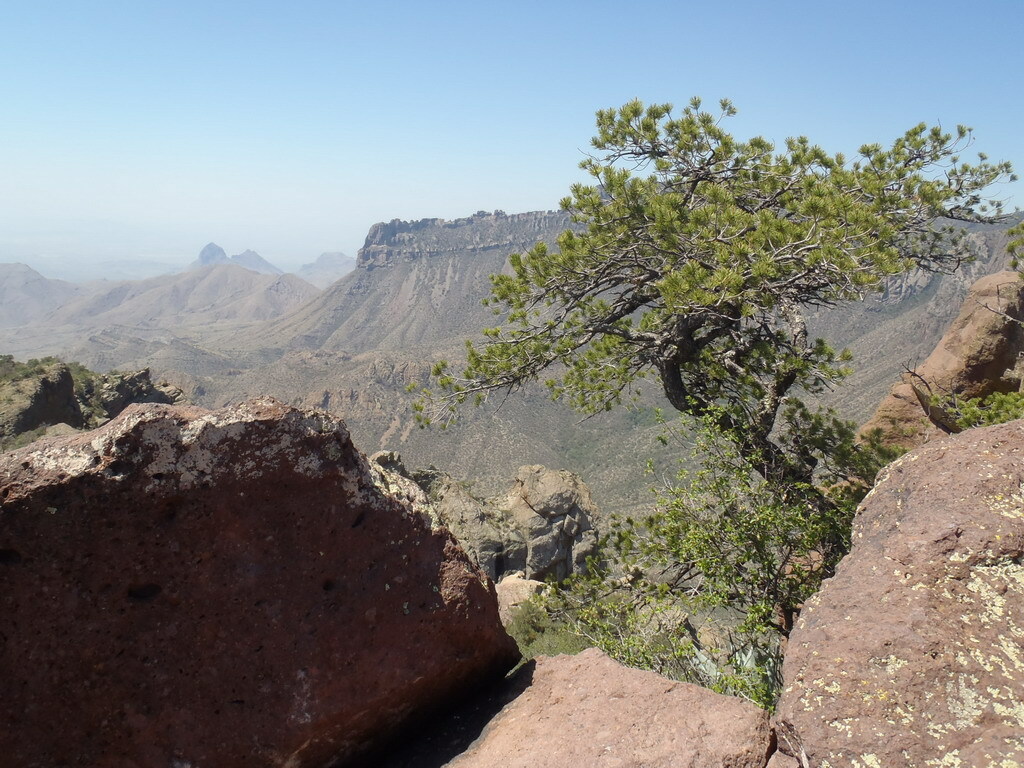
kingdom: Plantae
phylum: Tracheophyta
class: Pinopsida
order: Pinales
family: Pinaceae
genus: Pinus
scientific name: Pinus cembroides
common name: Mexican nut pine
